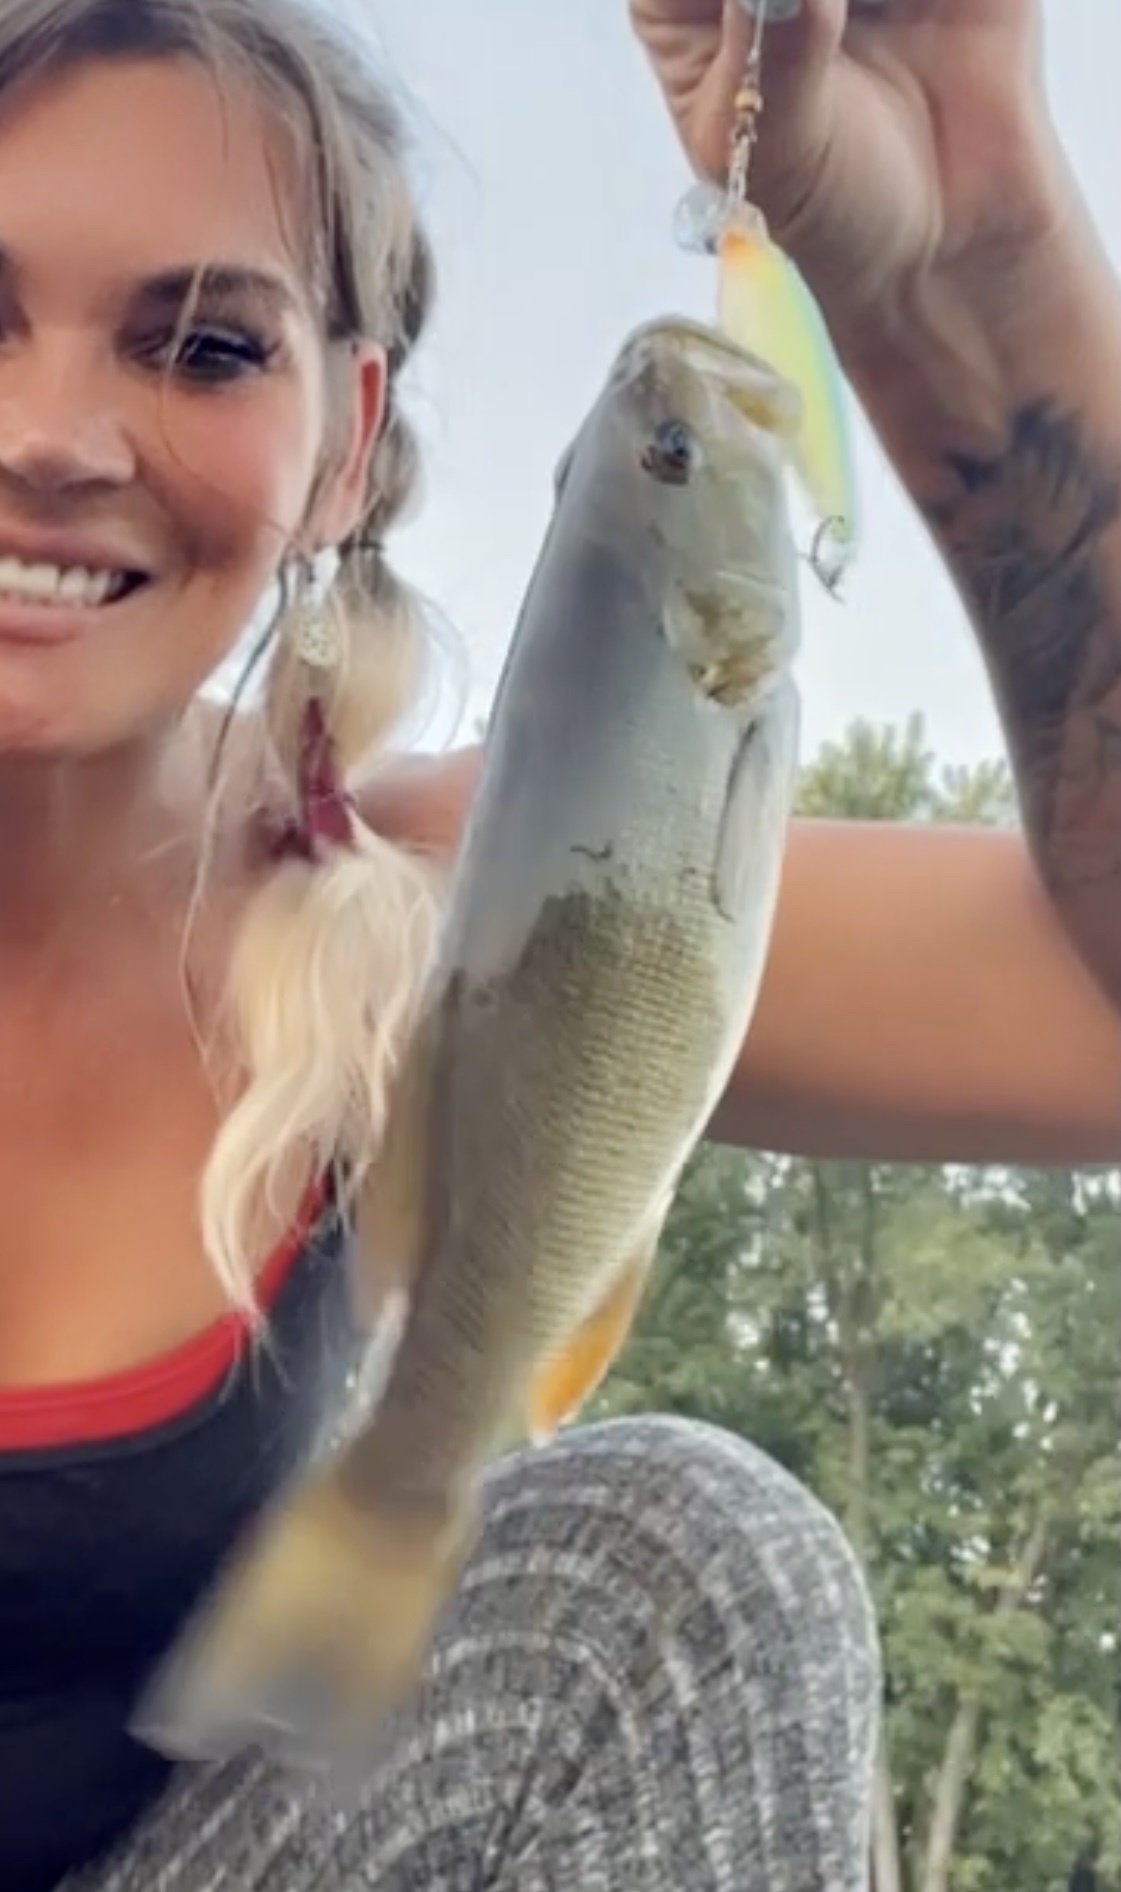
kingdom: Animalia
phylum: Chordata
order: Perciformes
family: Centrarchidae
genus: Micropterus
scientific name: Micropterus dolomieu
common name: Smallmouth bass
